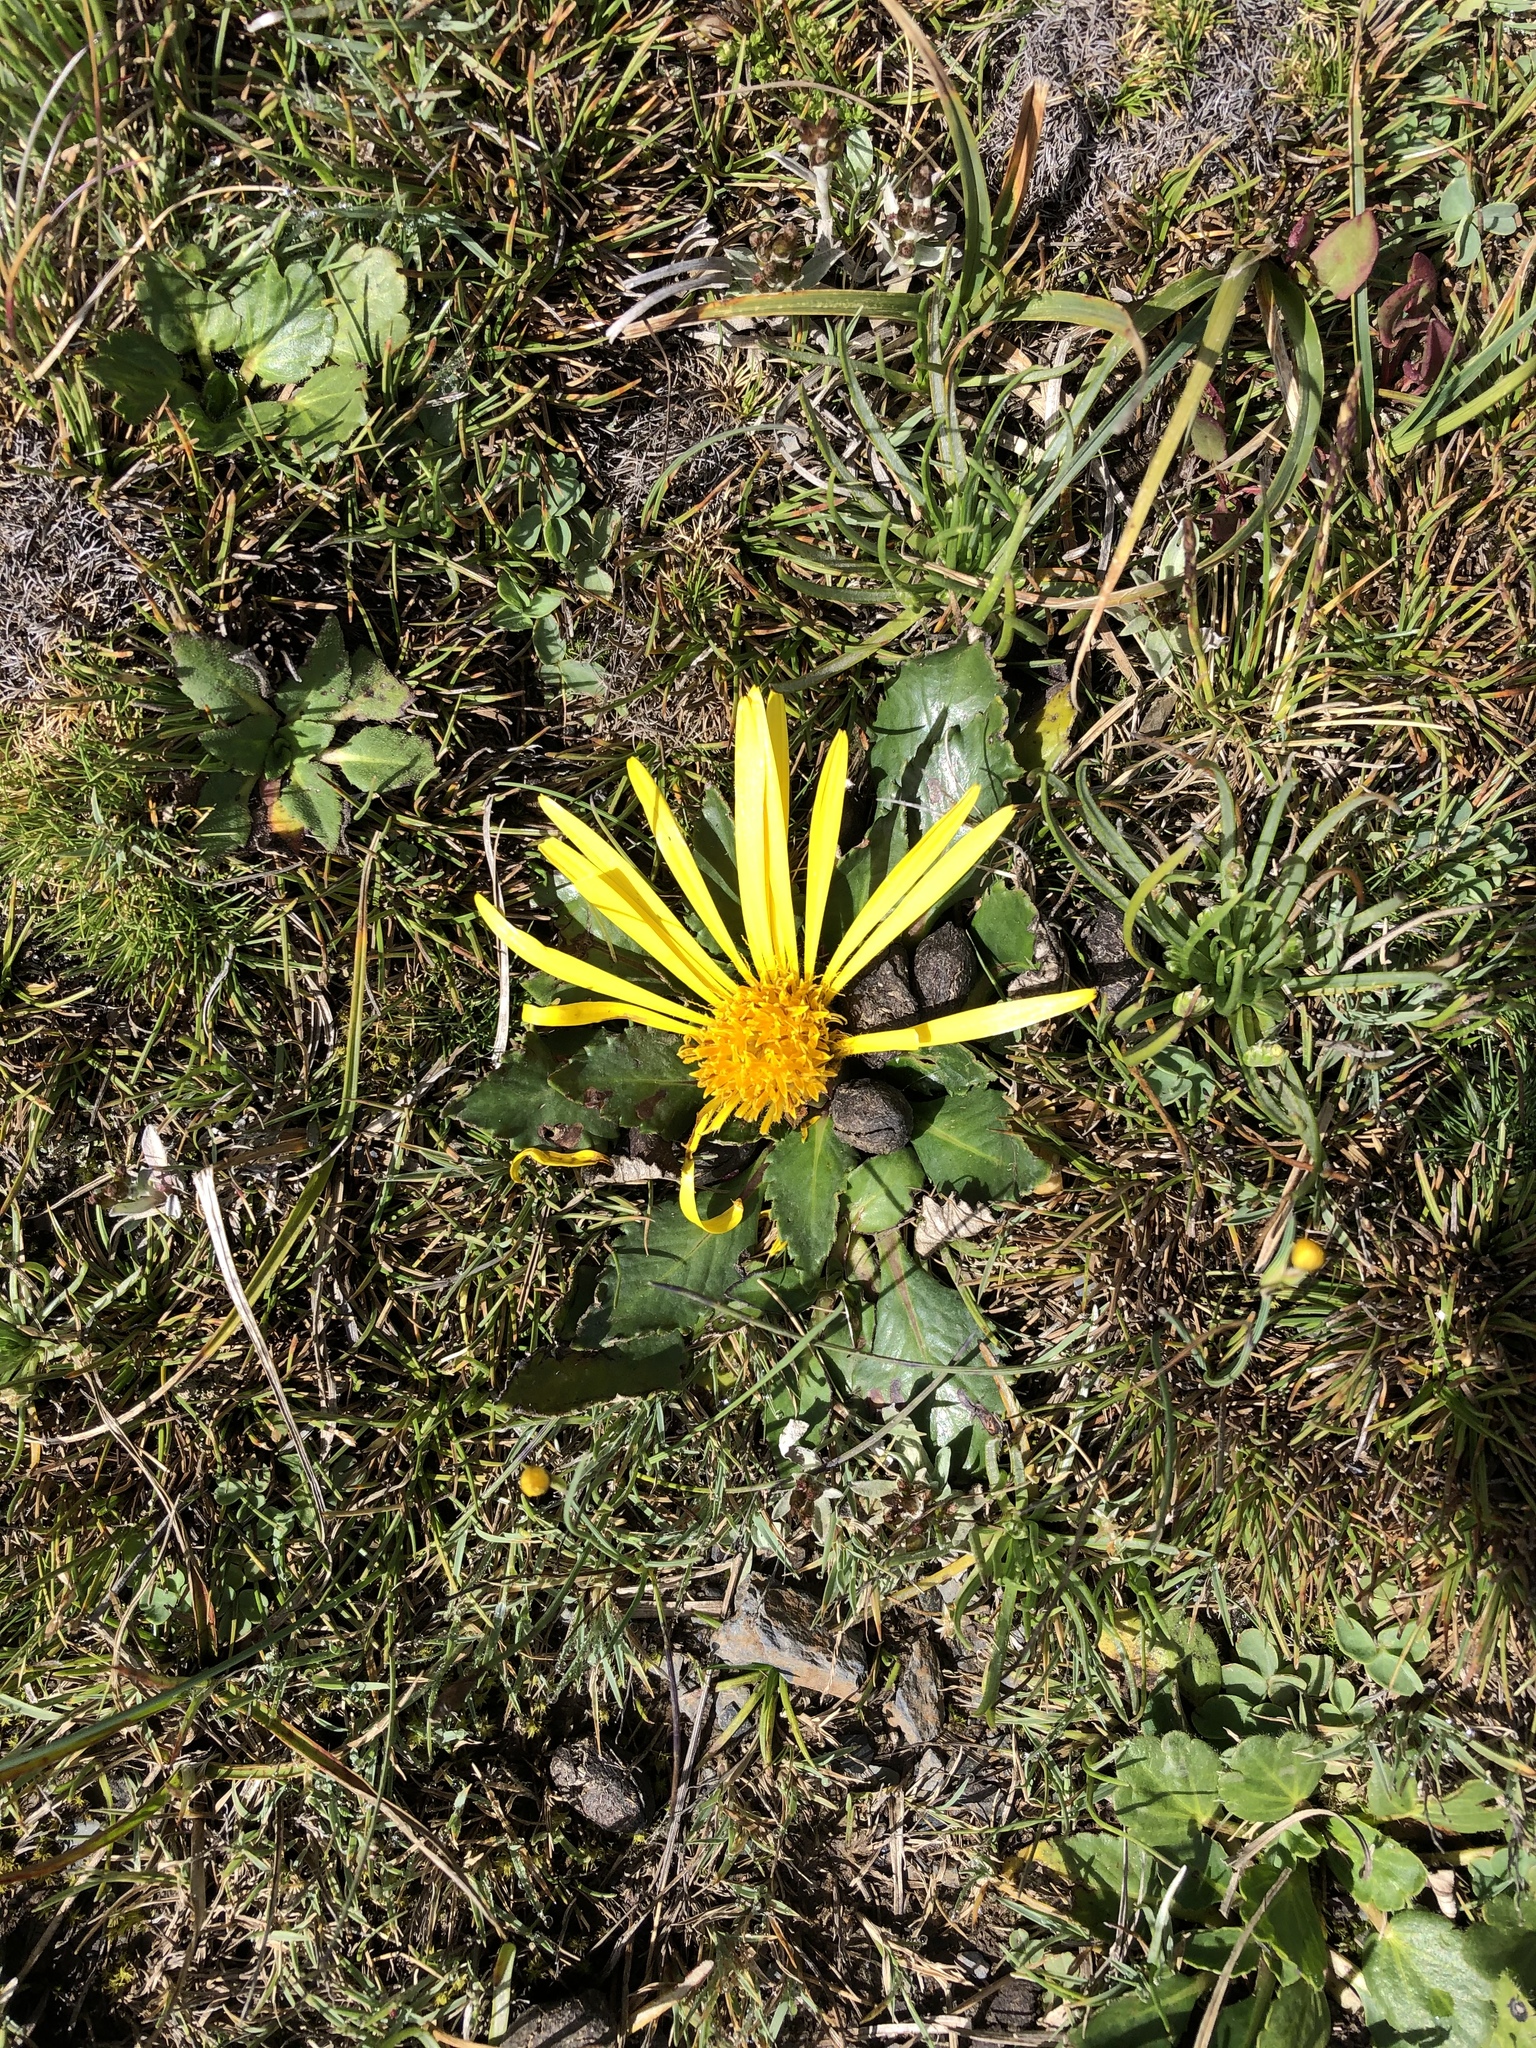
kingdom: Plantae
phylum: Tracheophyta
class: Magnoliopsida
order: Asterales
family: Asteraceae
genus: Paranephelius
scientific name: Paranephelius ovatus
